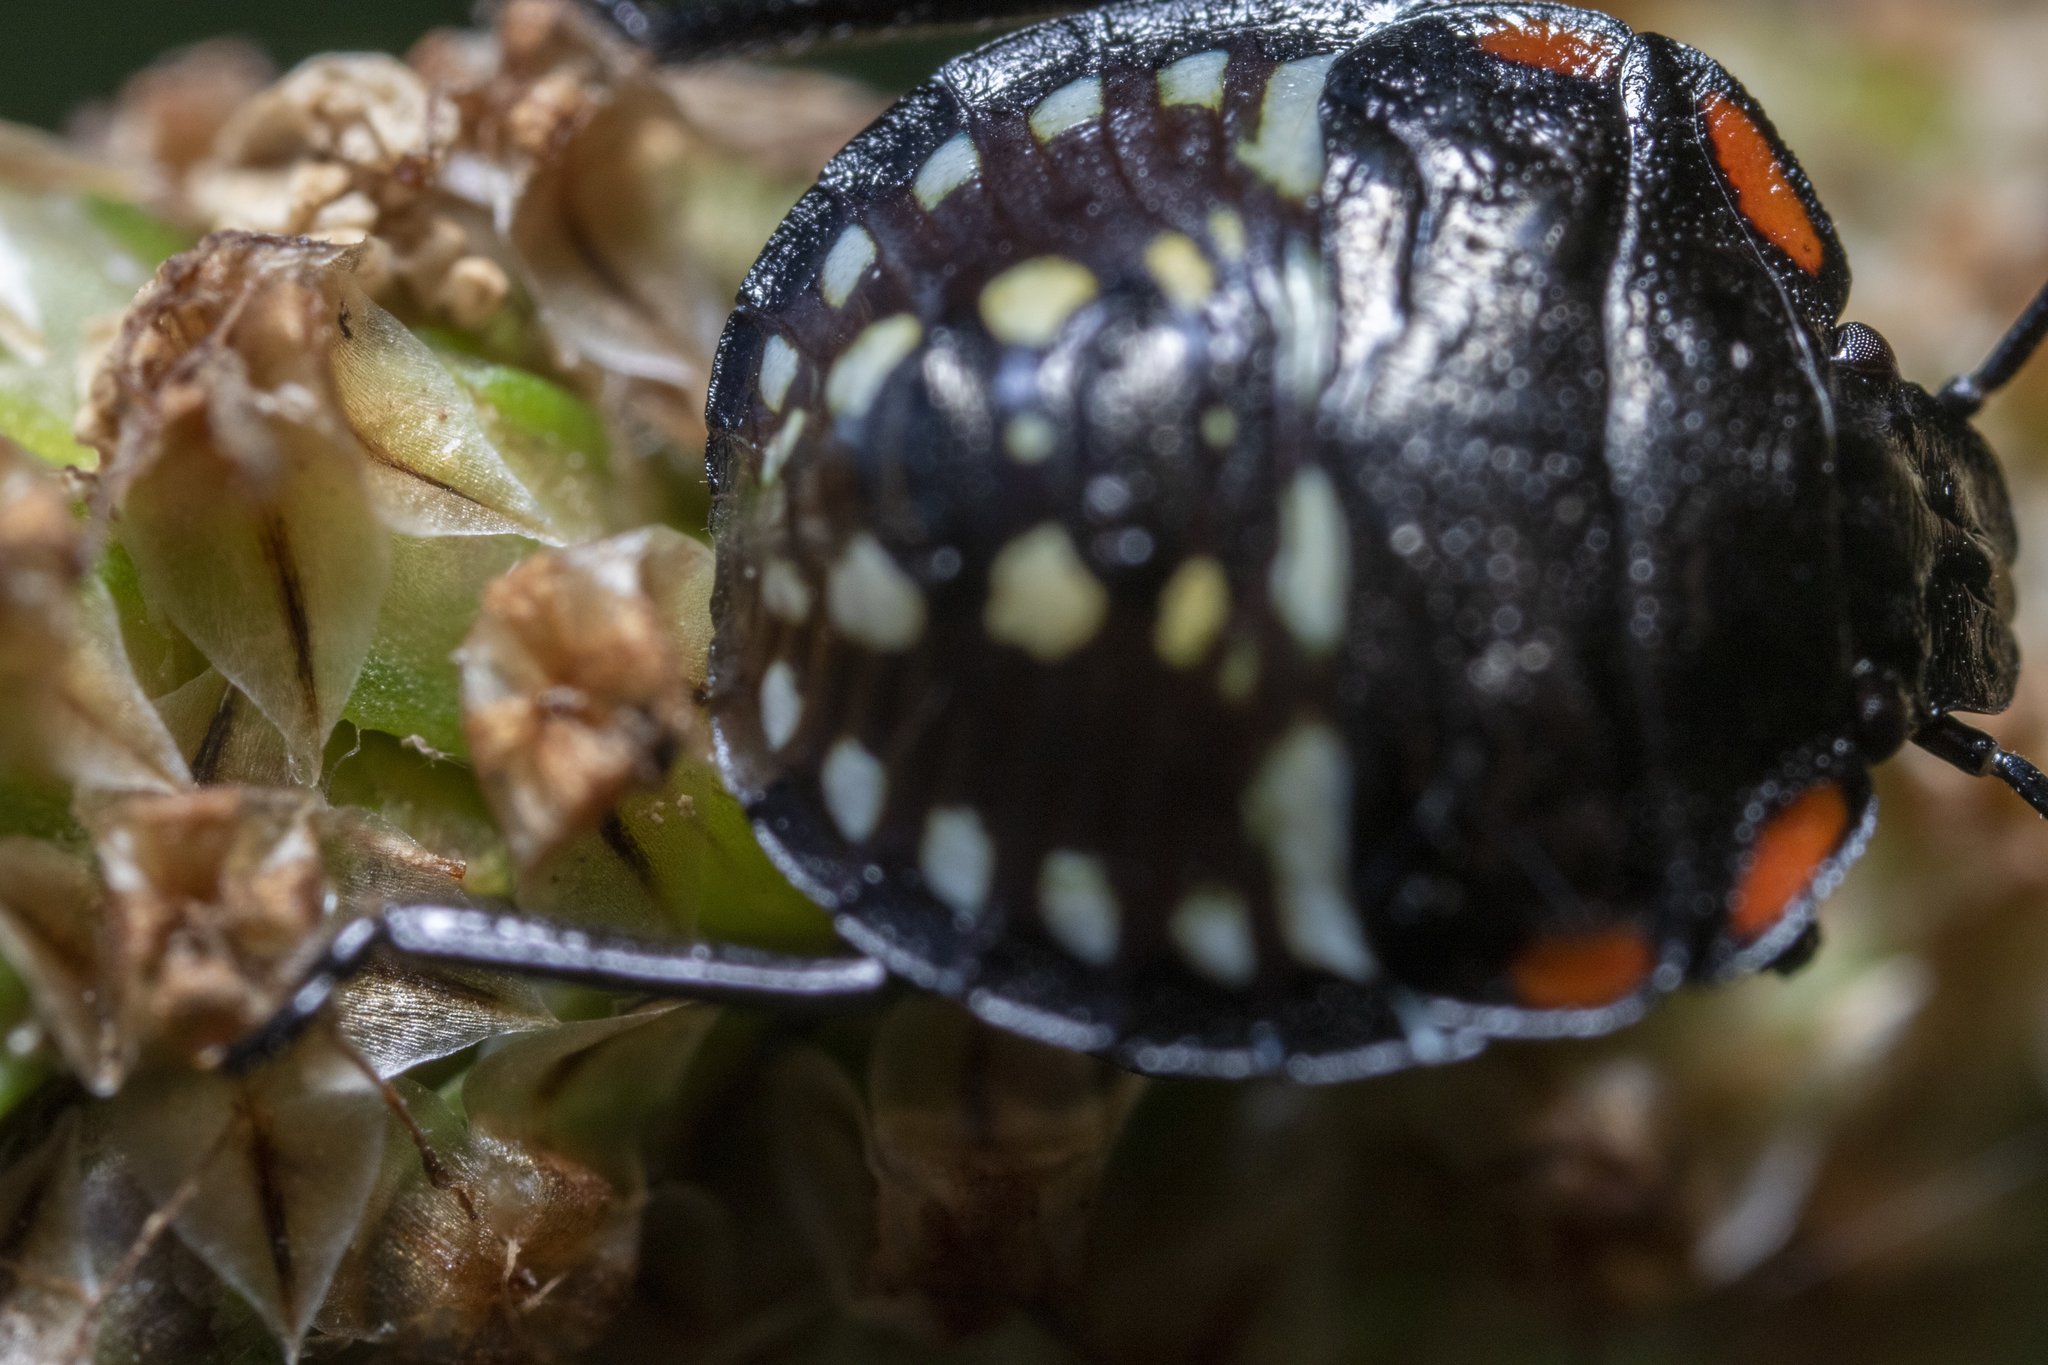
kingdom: Animalia
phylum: Arthropoda
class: Insecta
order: Hemiptera
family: Pentatomidae
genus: Nezara
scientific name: Nezara viridula
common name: Southern green stink bug
